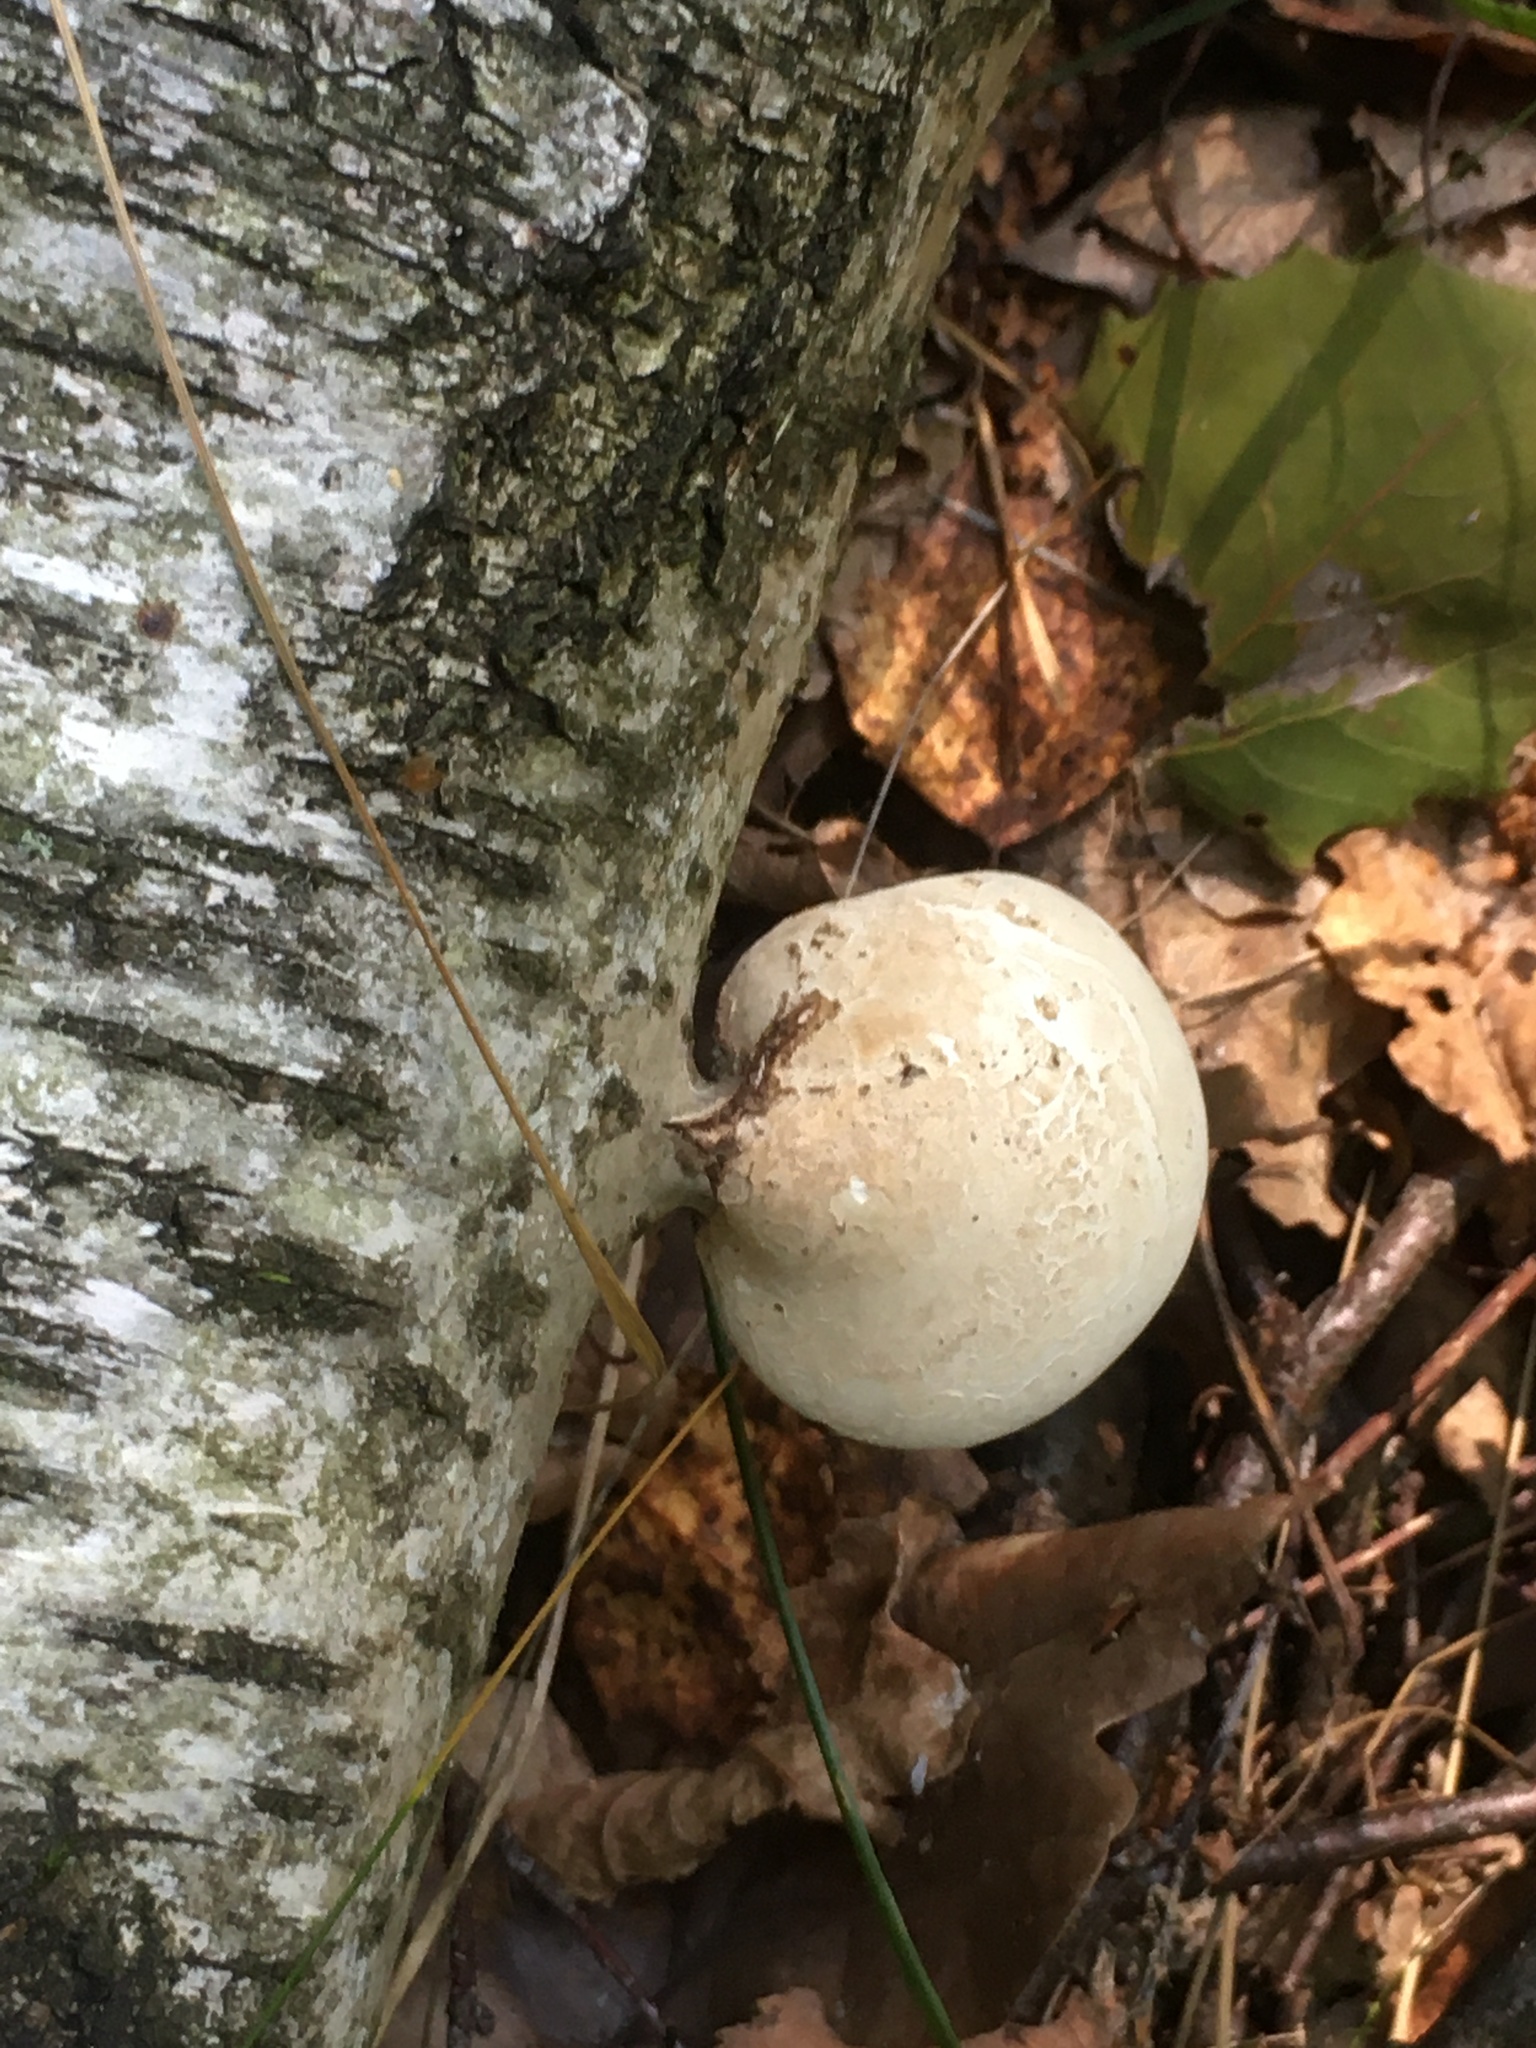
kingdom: Fungi
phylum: Basidiomycota
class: Agaricomycetes
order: Polyporales
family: Fomitopsidaceae
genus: Fomitopsis
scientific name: Fomitopsis betulina
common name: Birch polypore
